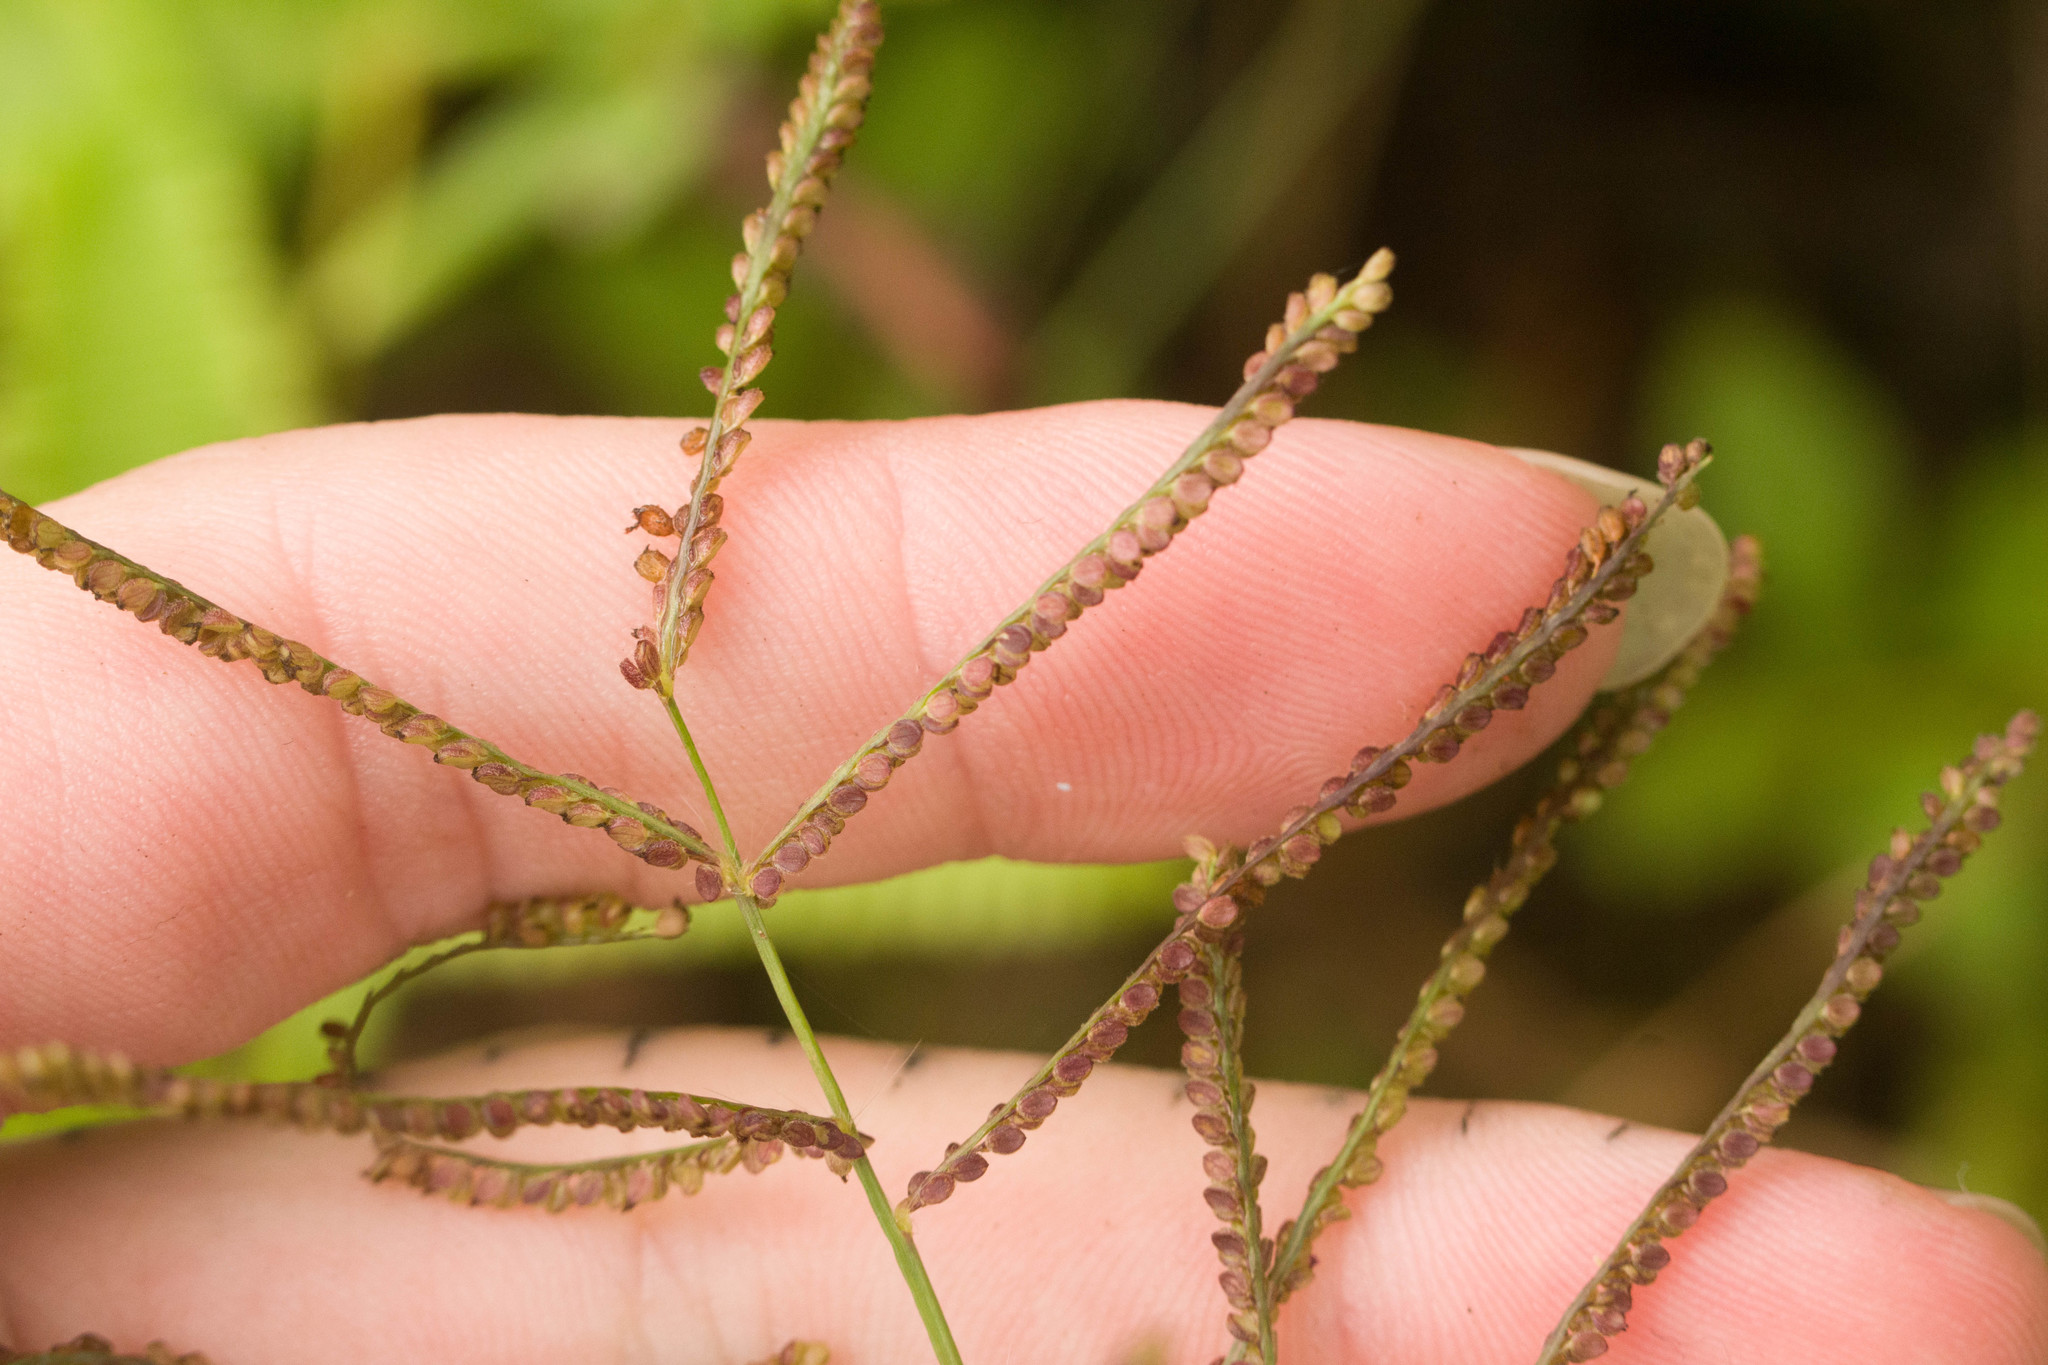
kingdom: Plantae
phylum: Tracheophyta
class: Liliopsida
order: Poales
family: Poaceae
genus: Paspalum
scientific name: Paspalum paniculatum
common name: Arrocillo
